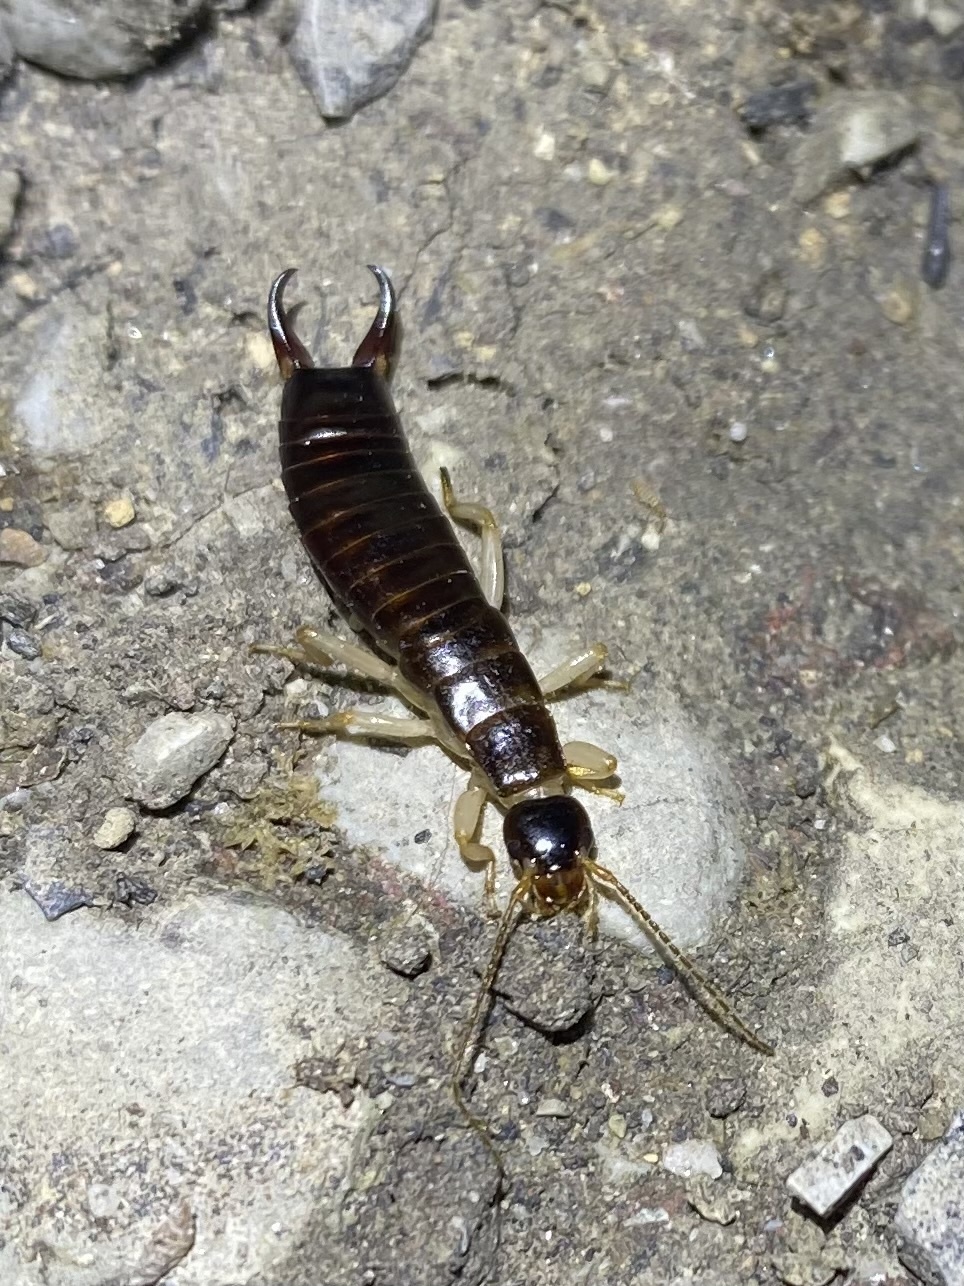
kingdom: Animalia
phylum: Arthropoda
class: Insecta
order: Dermaptera
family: Anisolabididae
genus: Anisolabis
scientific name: Anisolabis maritima
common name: Maritime earwig
